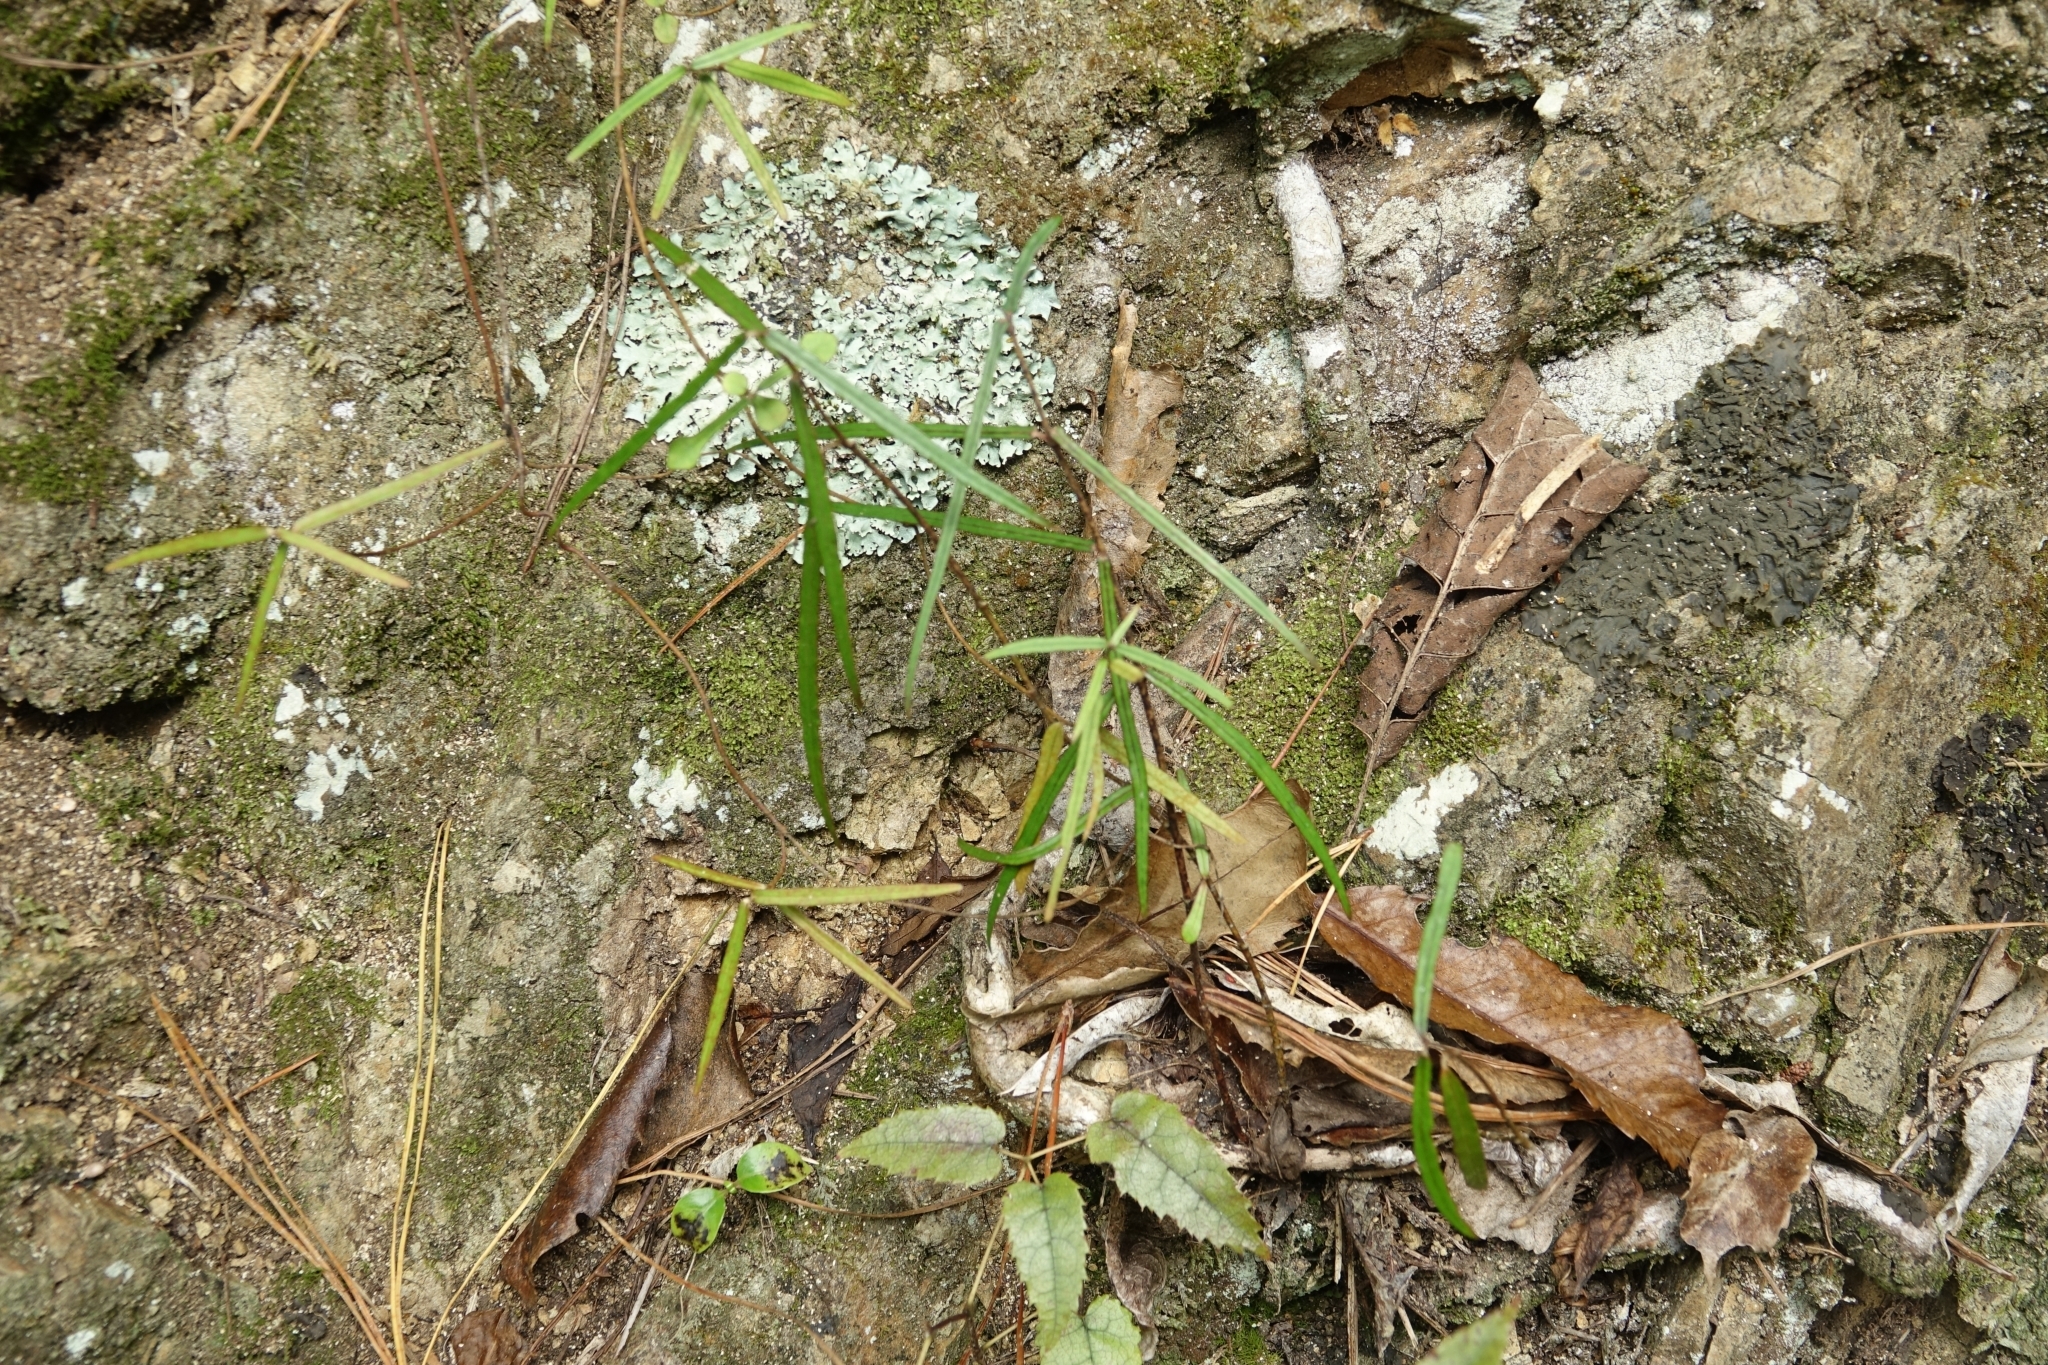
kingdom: Plantae
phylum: Tracheophyta
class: Magnoliopsida
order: Gentianales
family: Apocynaceae
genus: Parsonsia
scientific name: Parsonsia heterophylla
